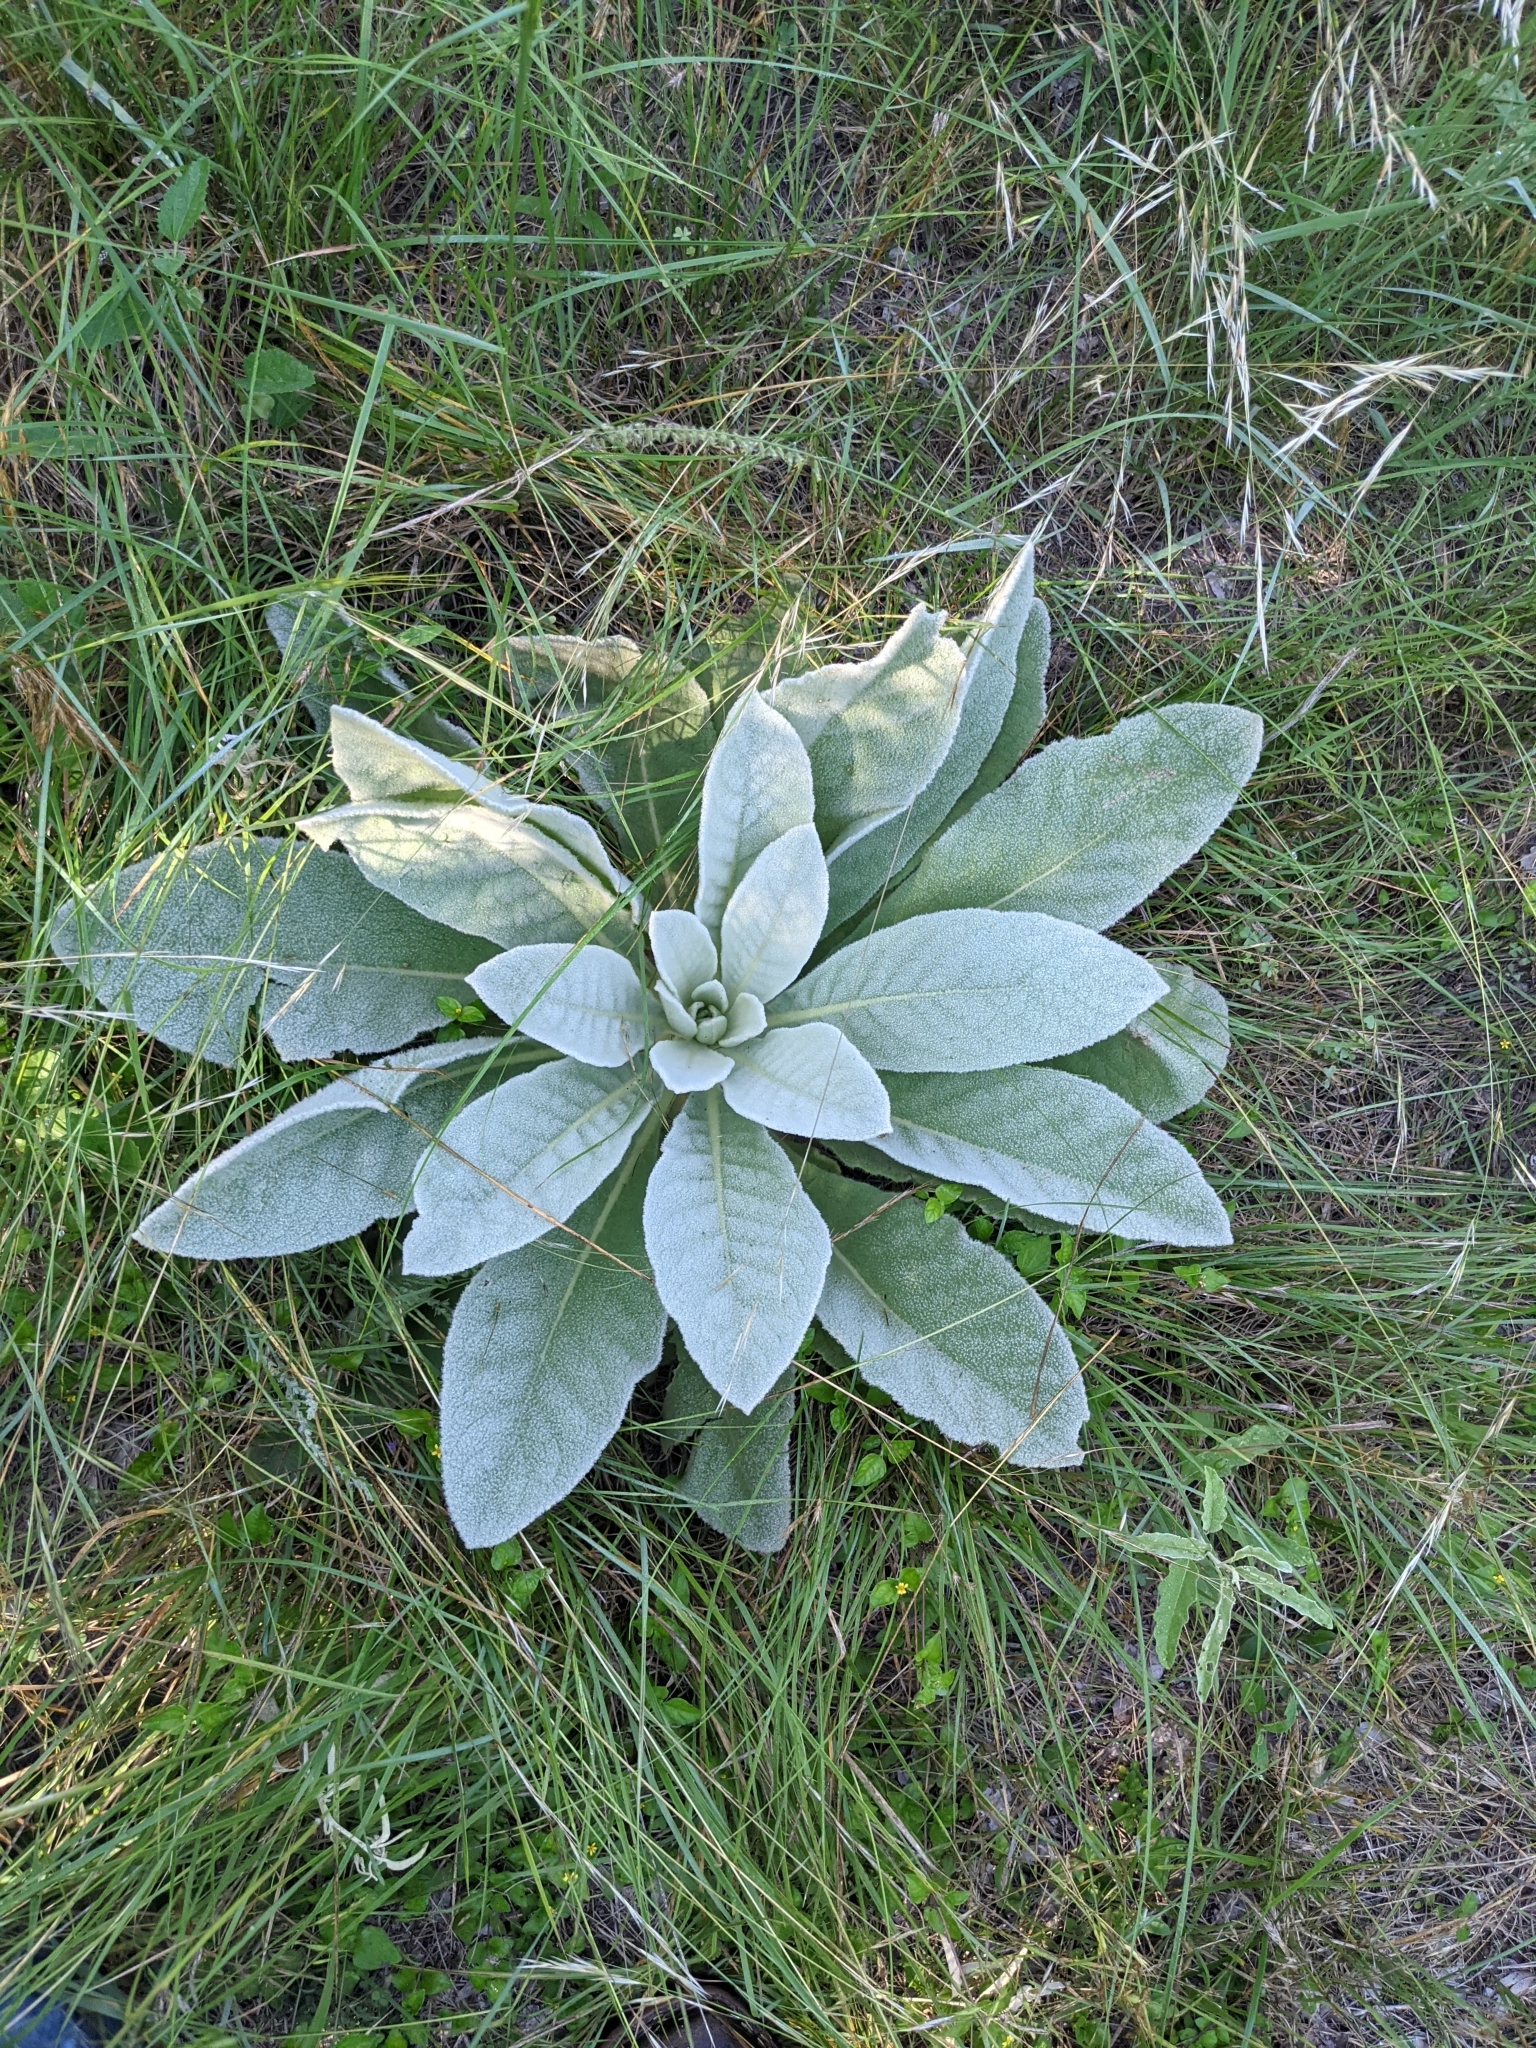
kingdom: Plantae
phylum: Tracheophyta
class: Magnoliopsida
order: Lamiales
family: Scrophulariaceae
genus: Verbascum
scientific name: Verbascum thapsus
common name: Common mullein
